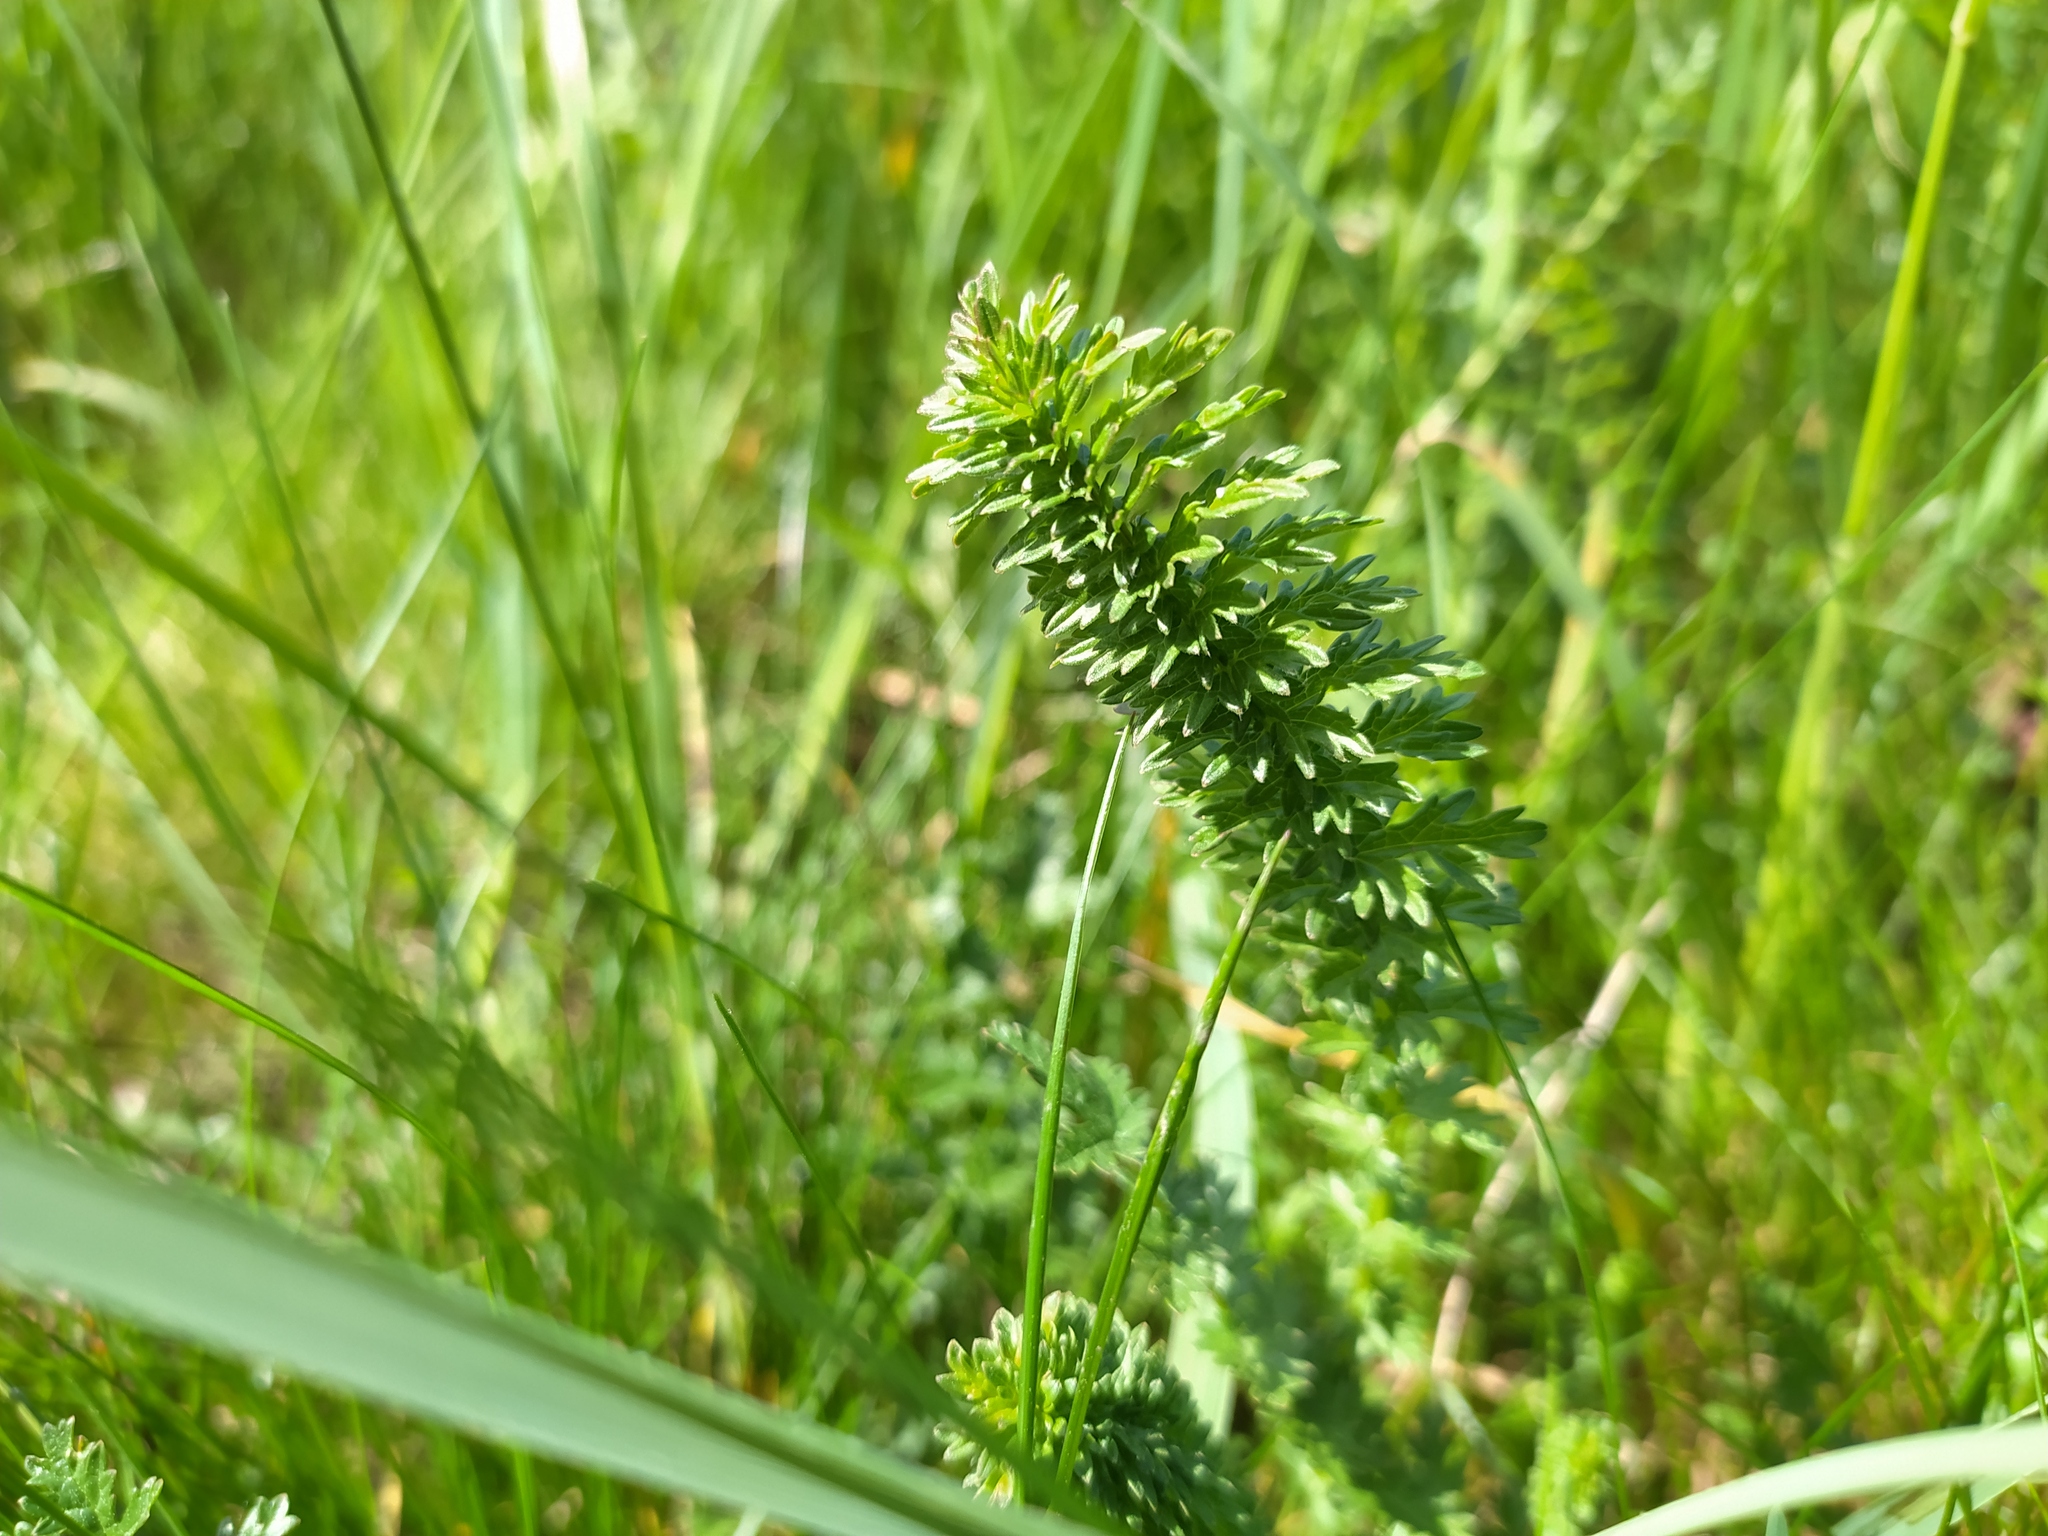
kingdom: Plantae
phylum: Tracheophyta
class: Magnoliopsida
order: Rosales
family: Rosaceae
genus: Filipendula
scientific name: Filipendula vulgaris
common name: Dropwort
